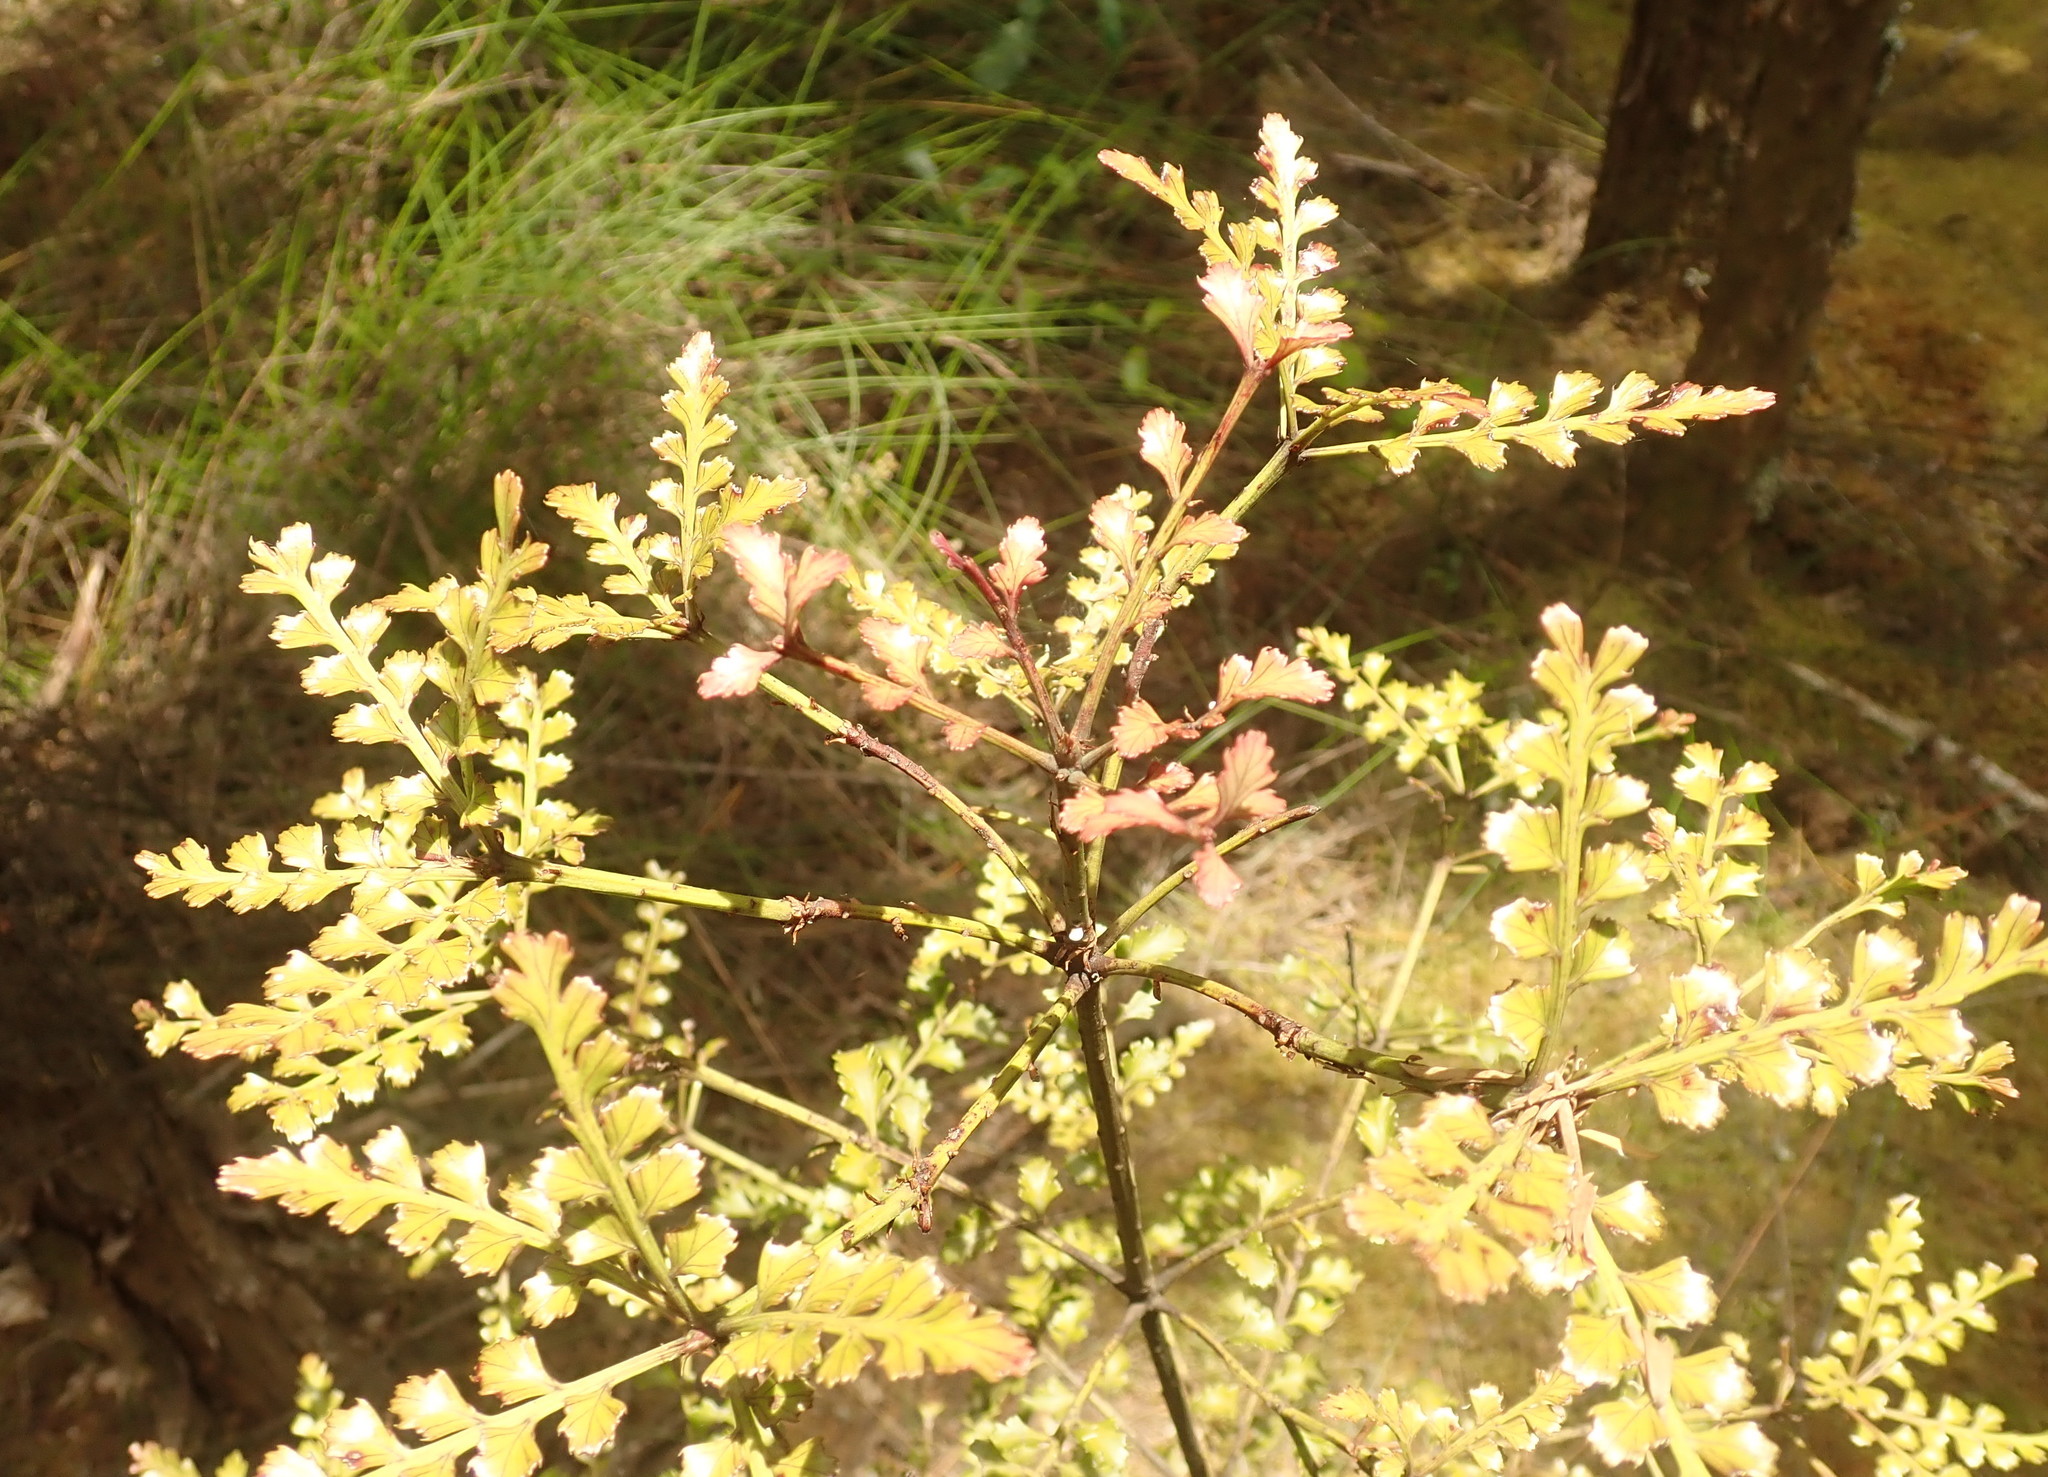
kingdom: Plantae
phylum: Tracheophyta
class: Pinopsida
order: Pinales
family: Phyllocladaceae
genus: Phyllocladus
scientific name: Phyllocladus trichomanoides
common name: Celery pine
